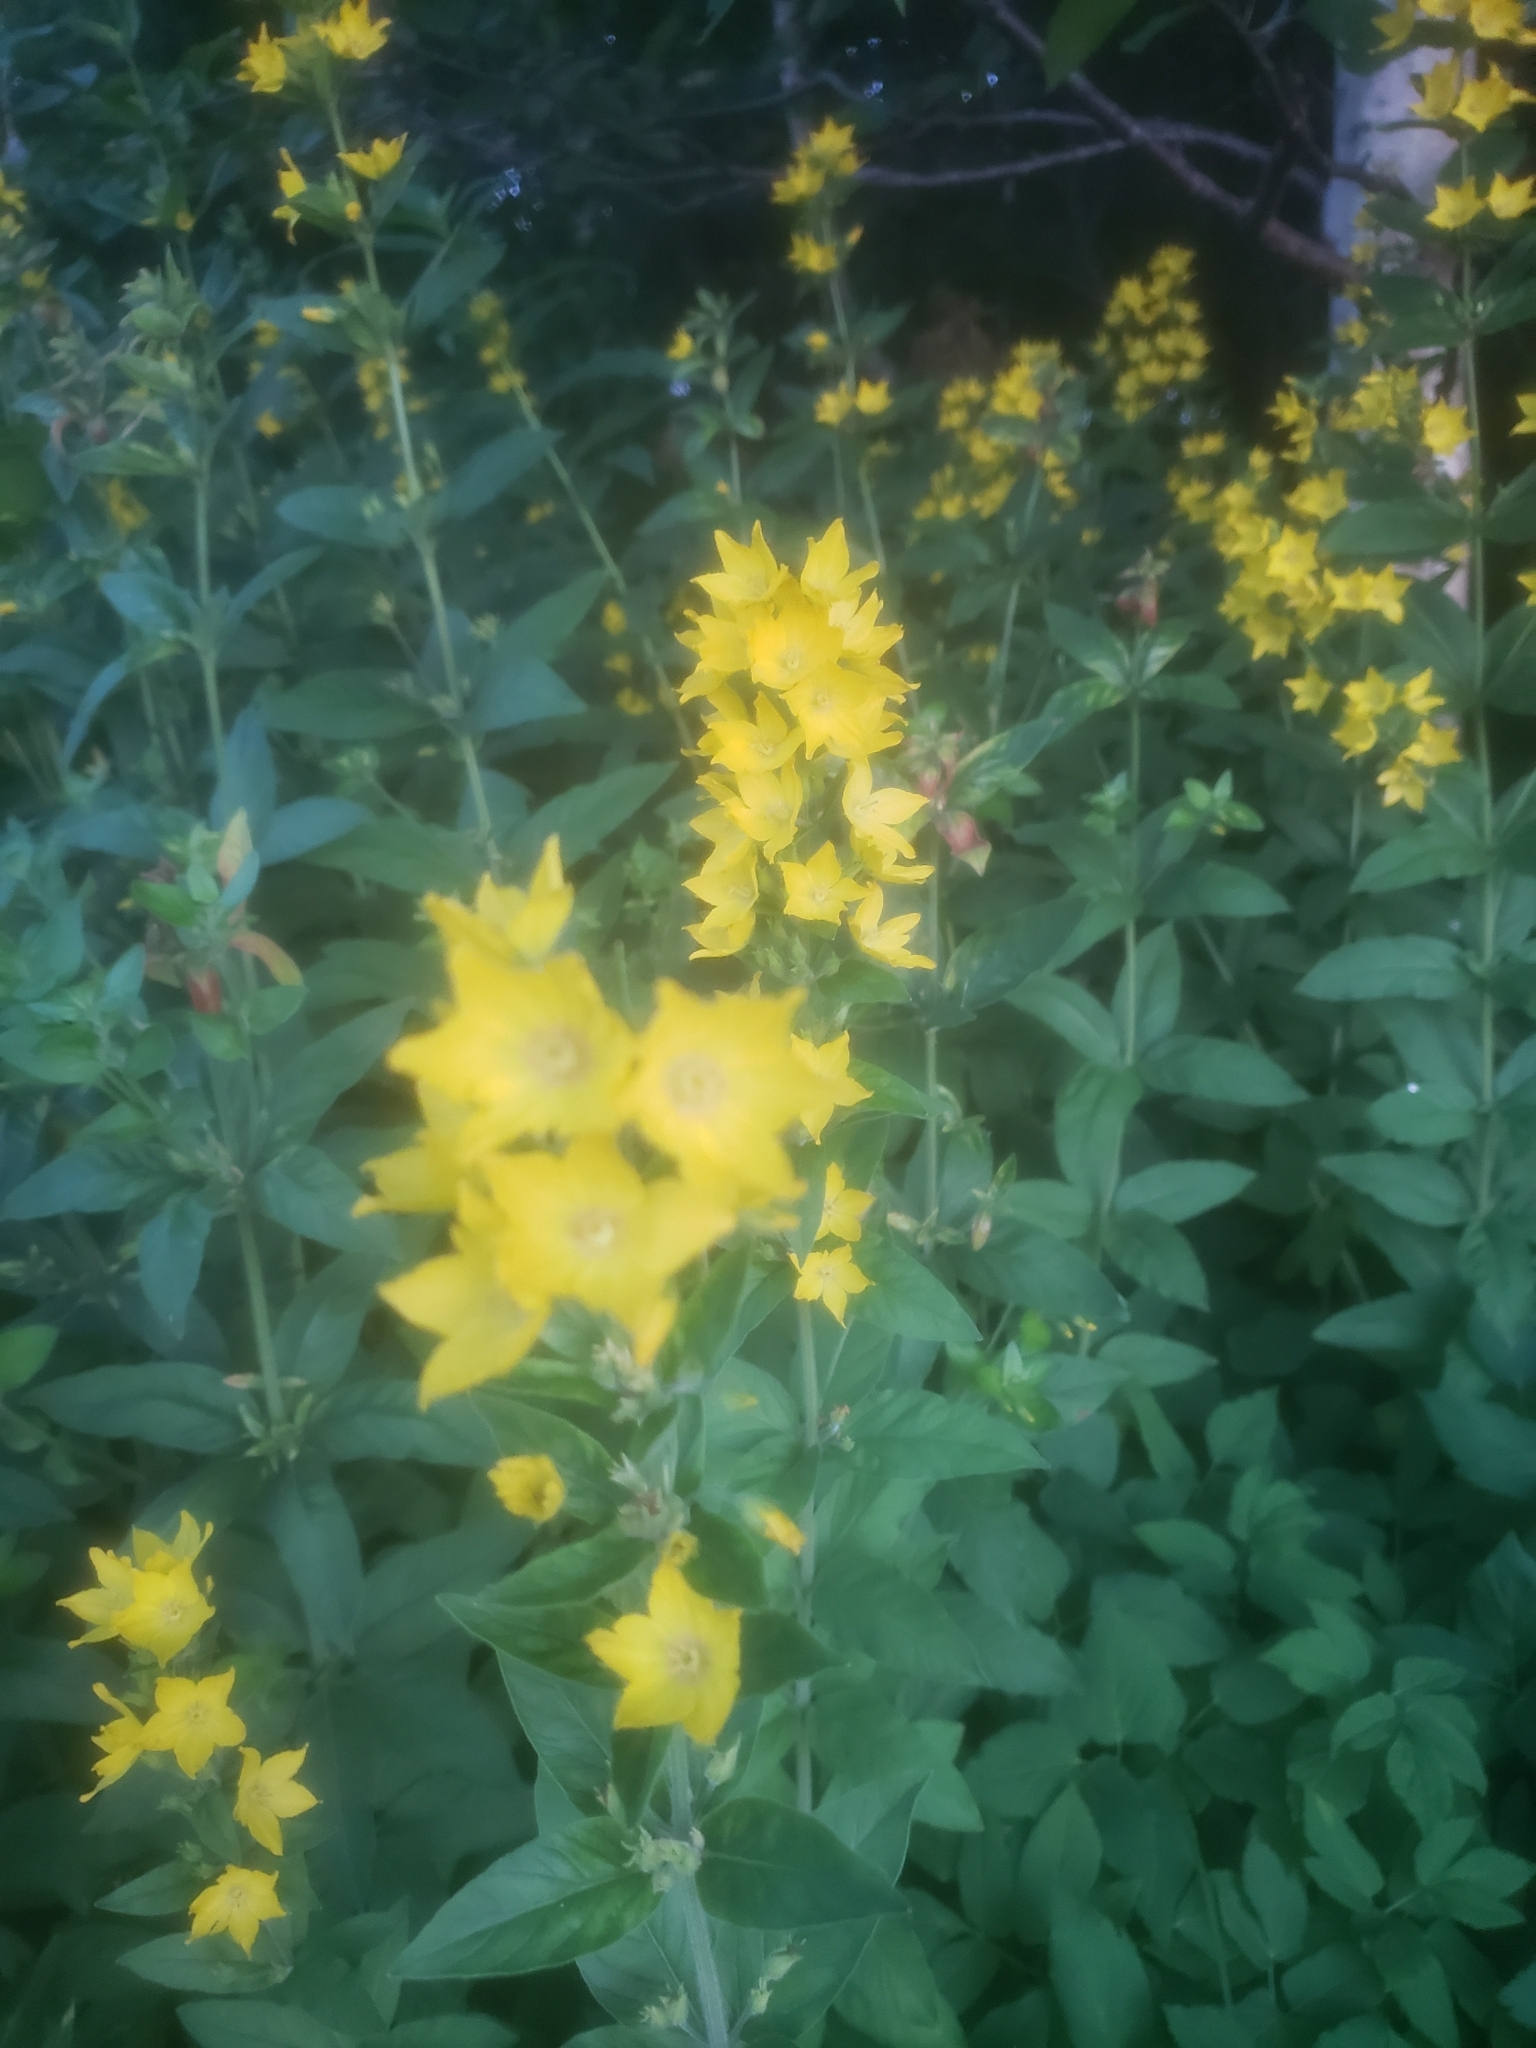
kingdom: Plantae
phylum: Tracheophyta
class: Magnoliopsida
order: Ericales
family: Primulaceae
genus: Lysimachia
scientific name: Lysimachia punctata
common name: Dotted loosestrife
